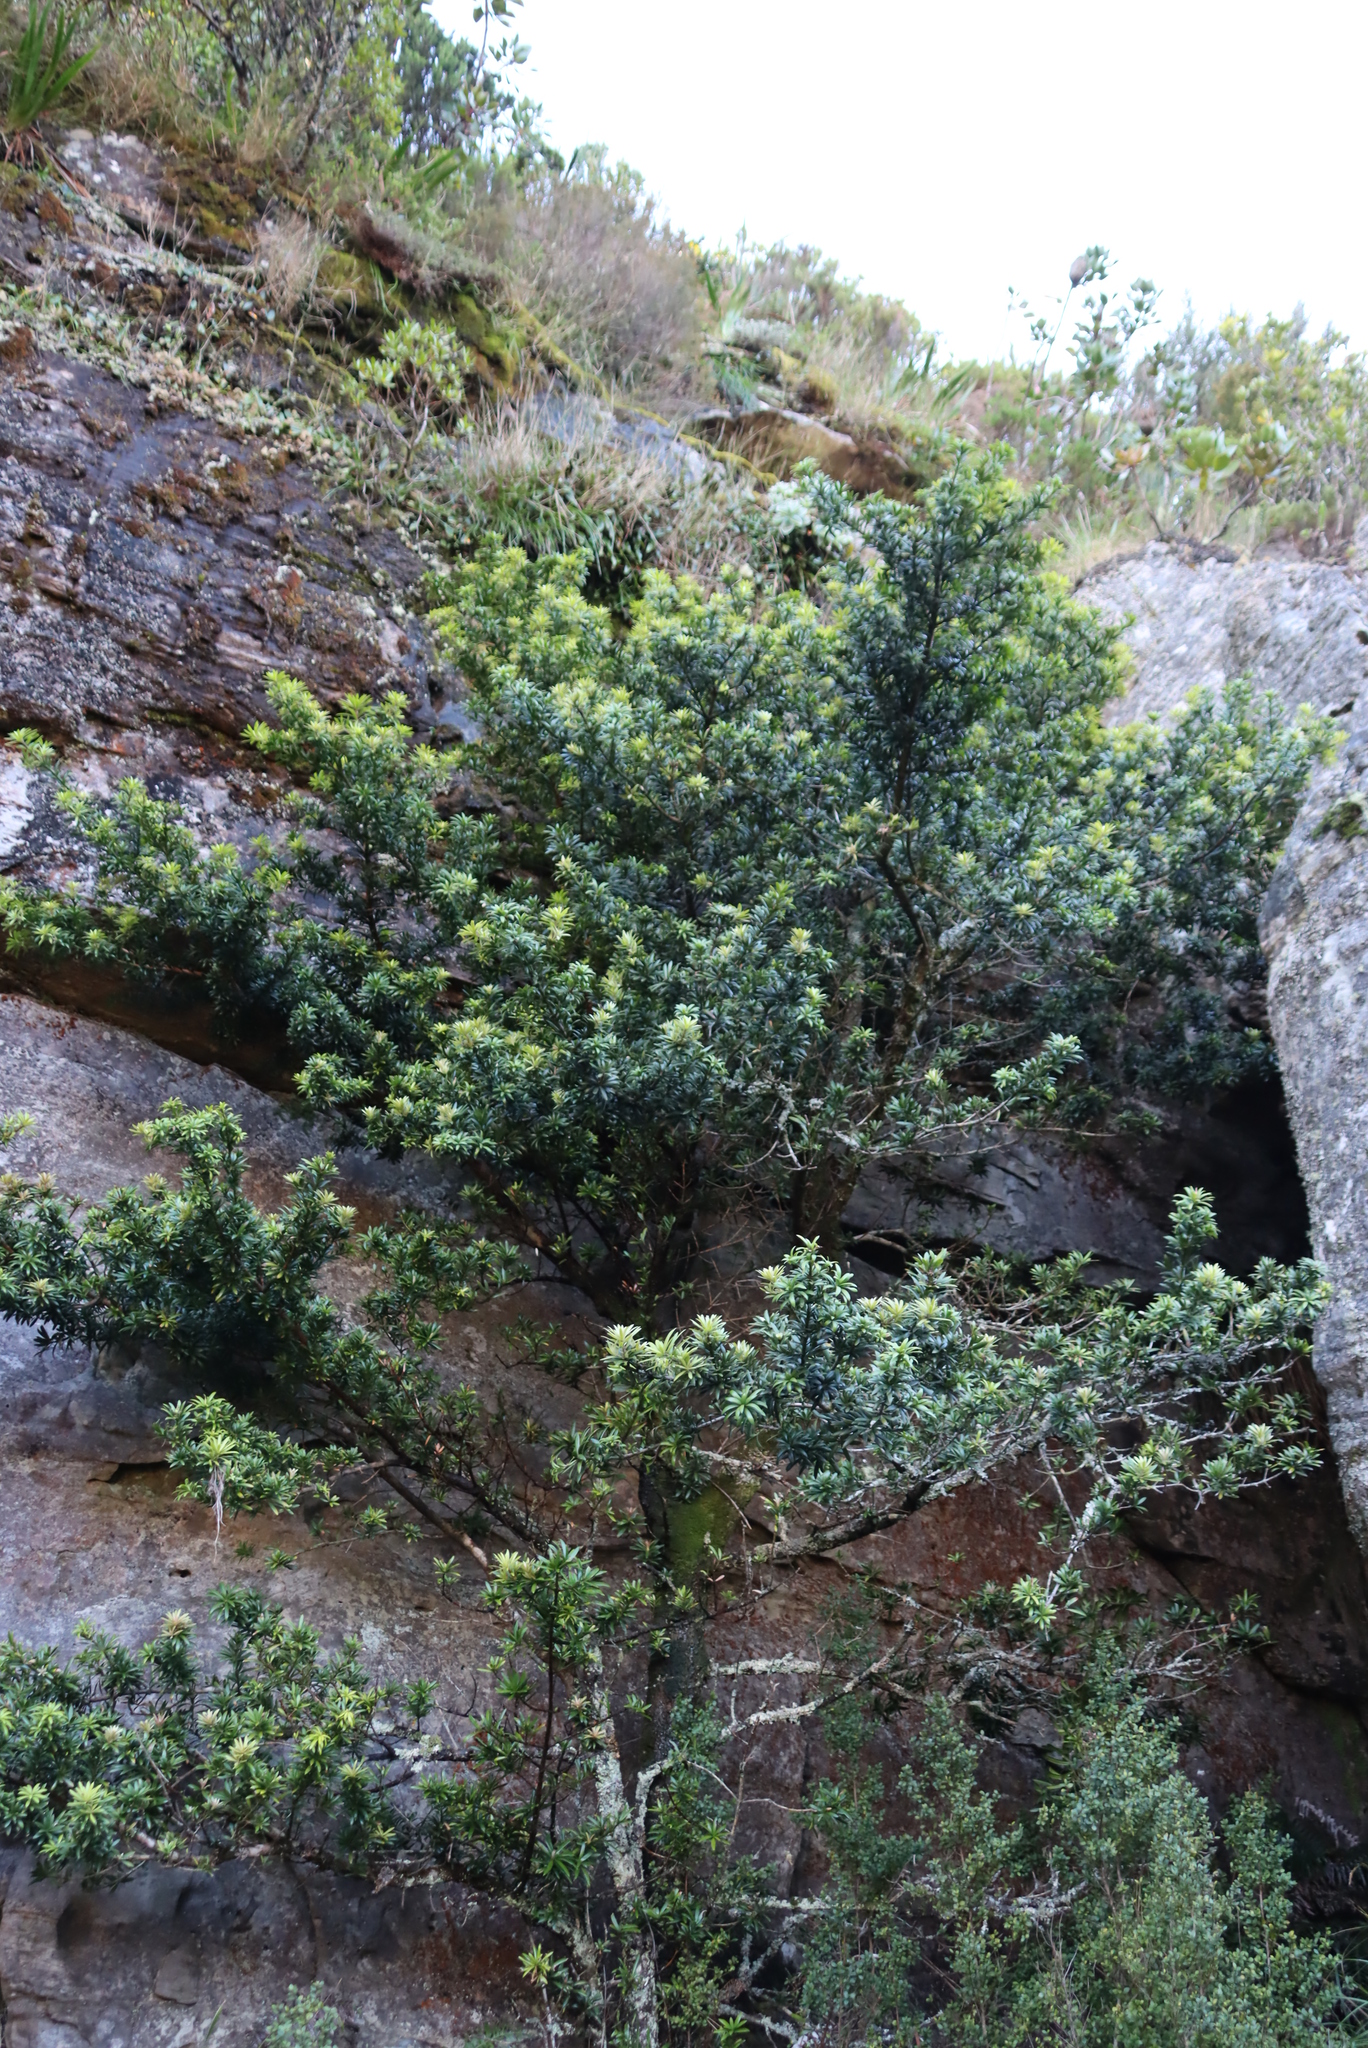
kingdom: Plantae
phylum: Tracheophyta
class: Pinopsida
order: Pinales
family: Podocarpaceae
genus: Podocarpus
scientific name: Podocarpus latifolius
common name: True yellowwood
